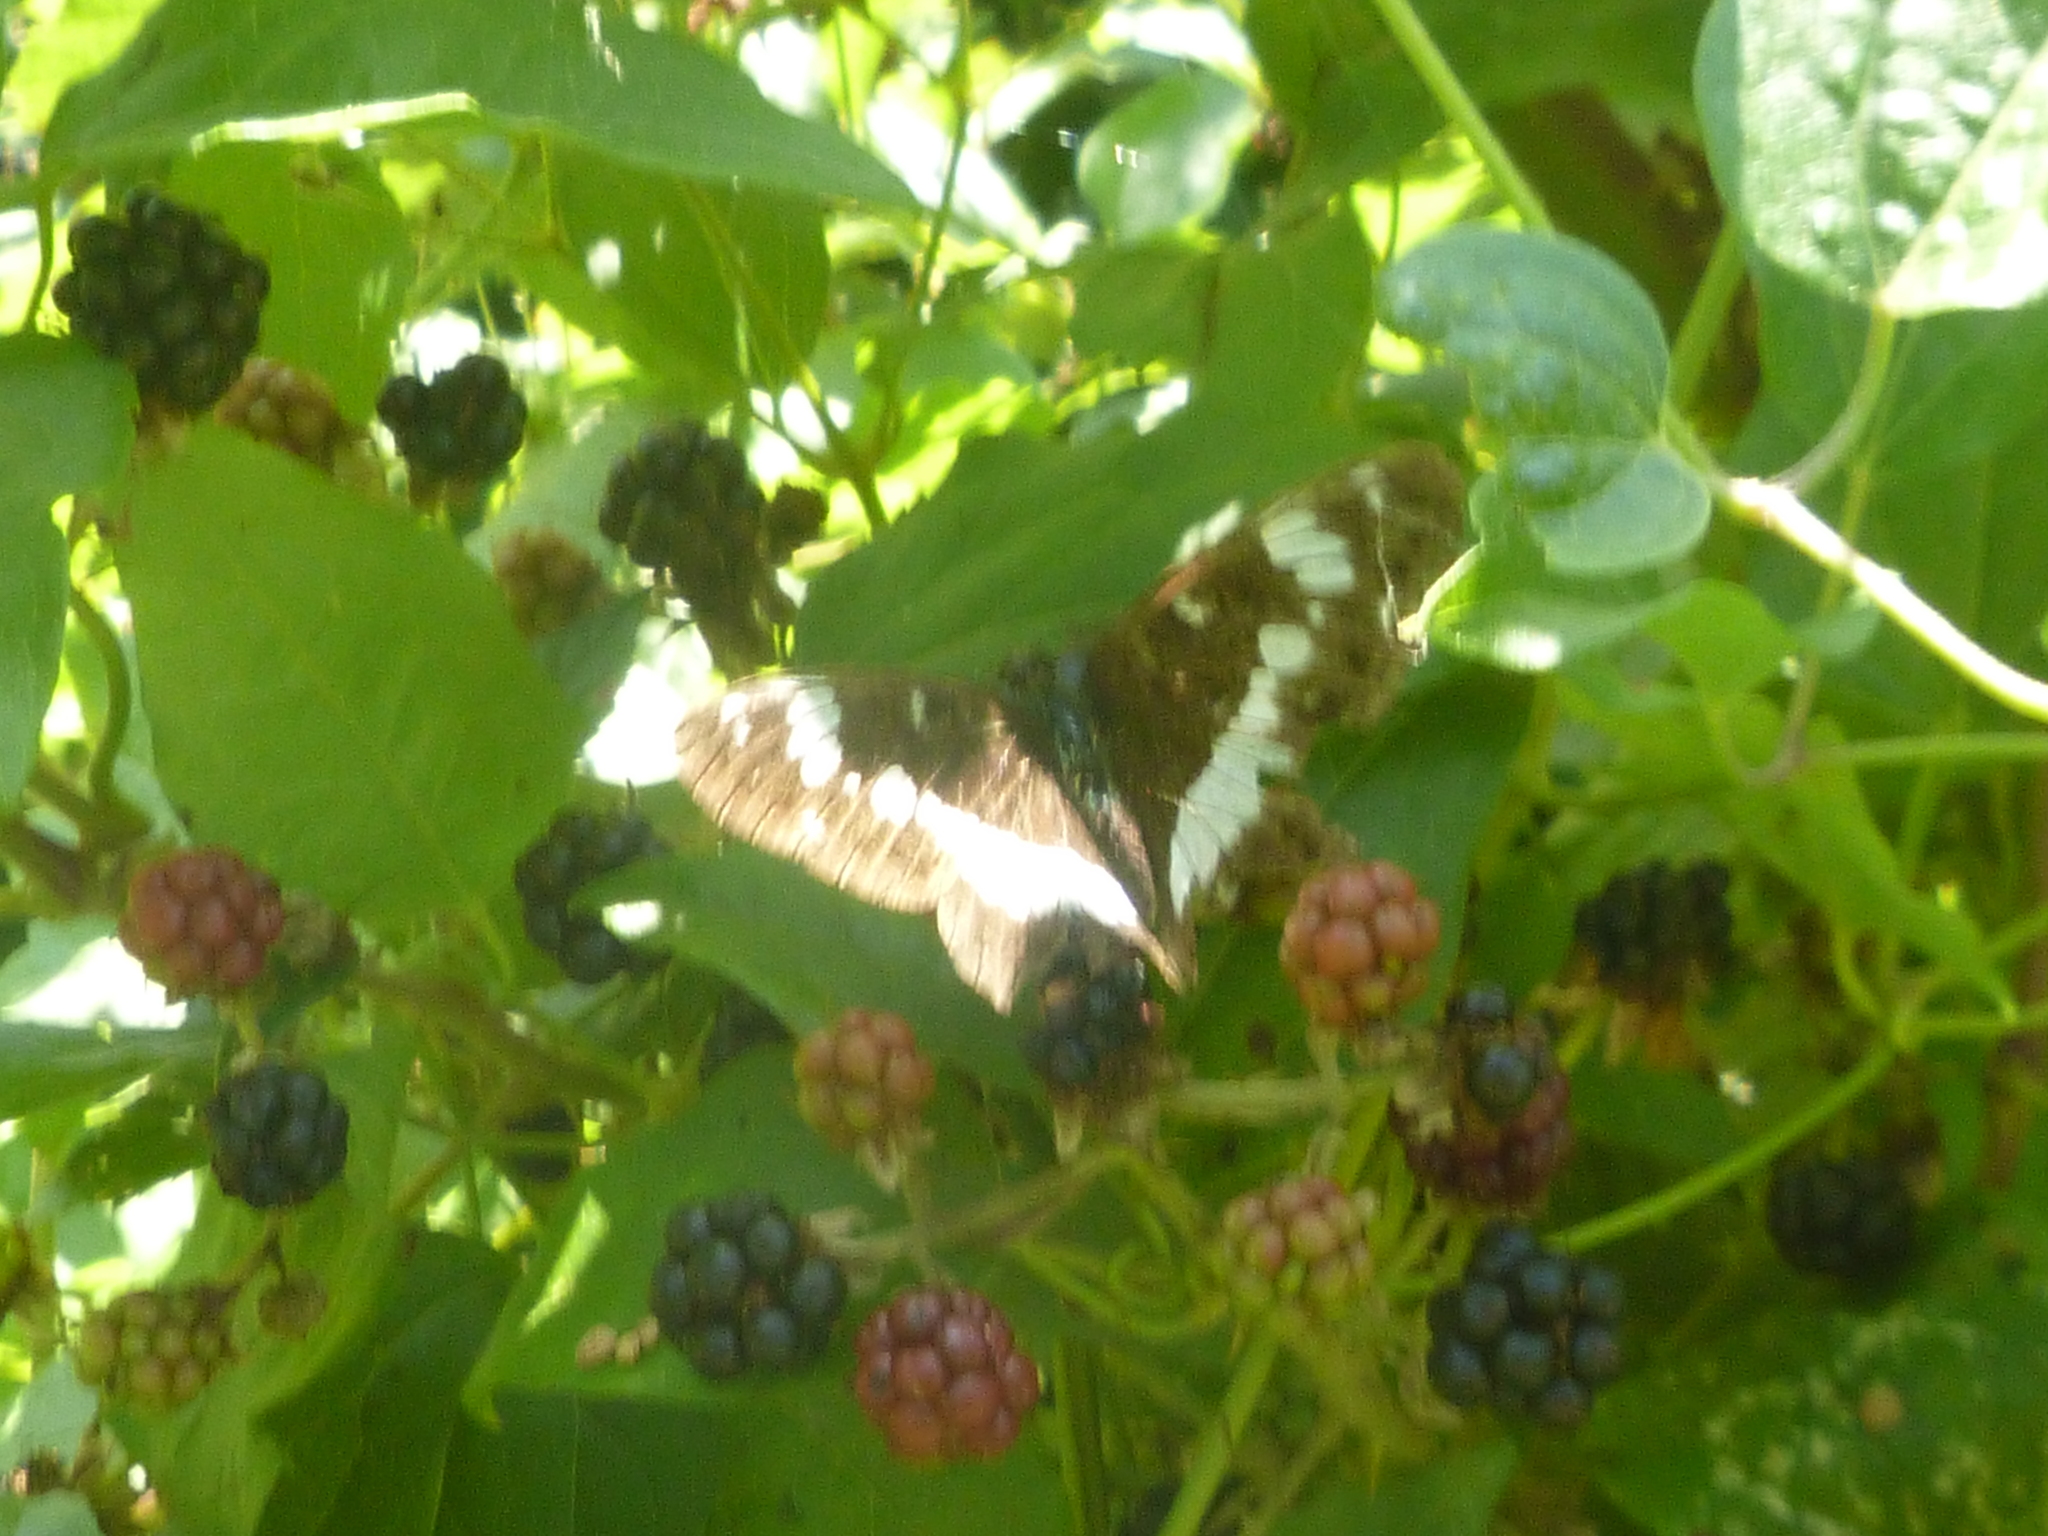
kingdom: Animalia
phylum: Arthropoda
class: Insecta
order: Lepidoptera
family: Nymphalidae
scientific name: Nymphalidae
